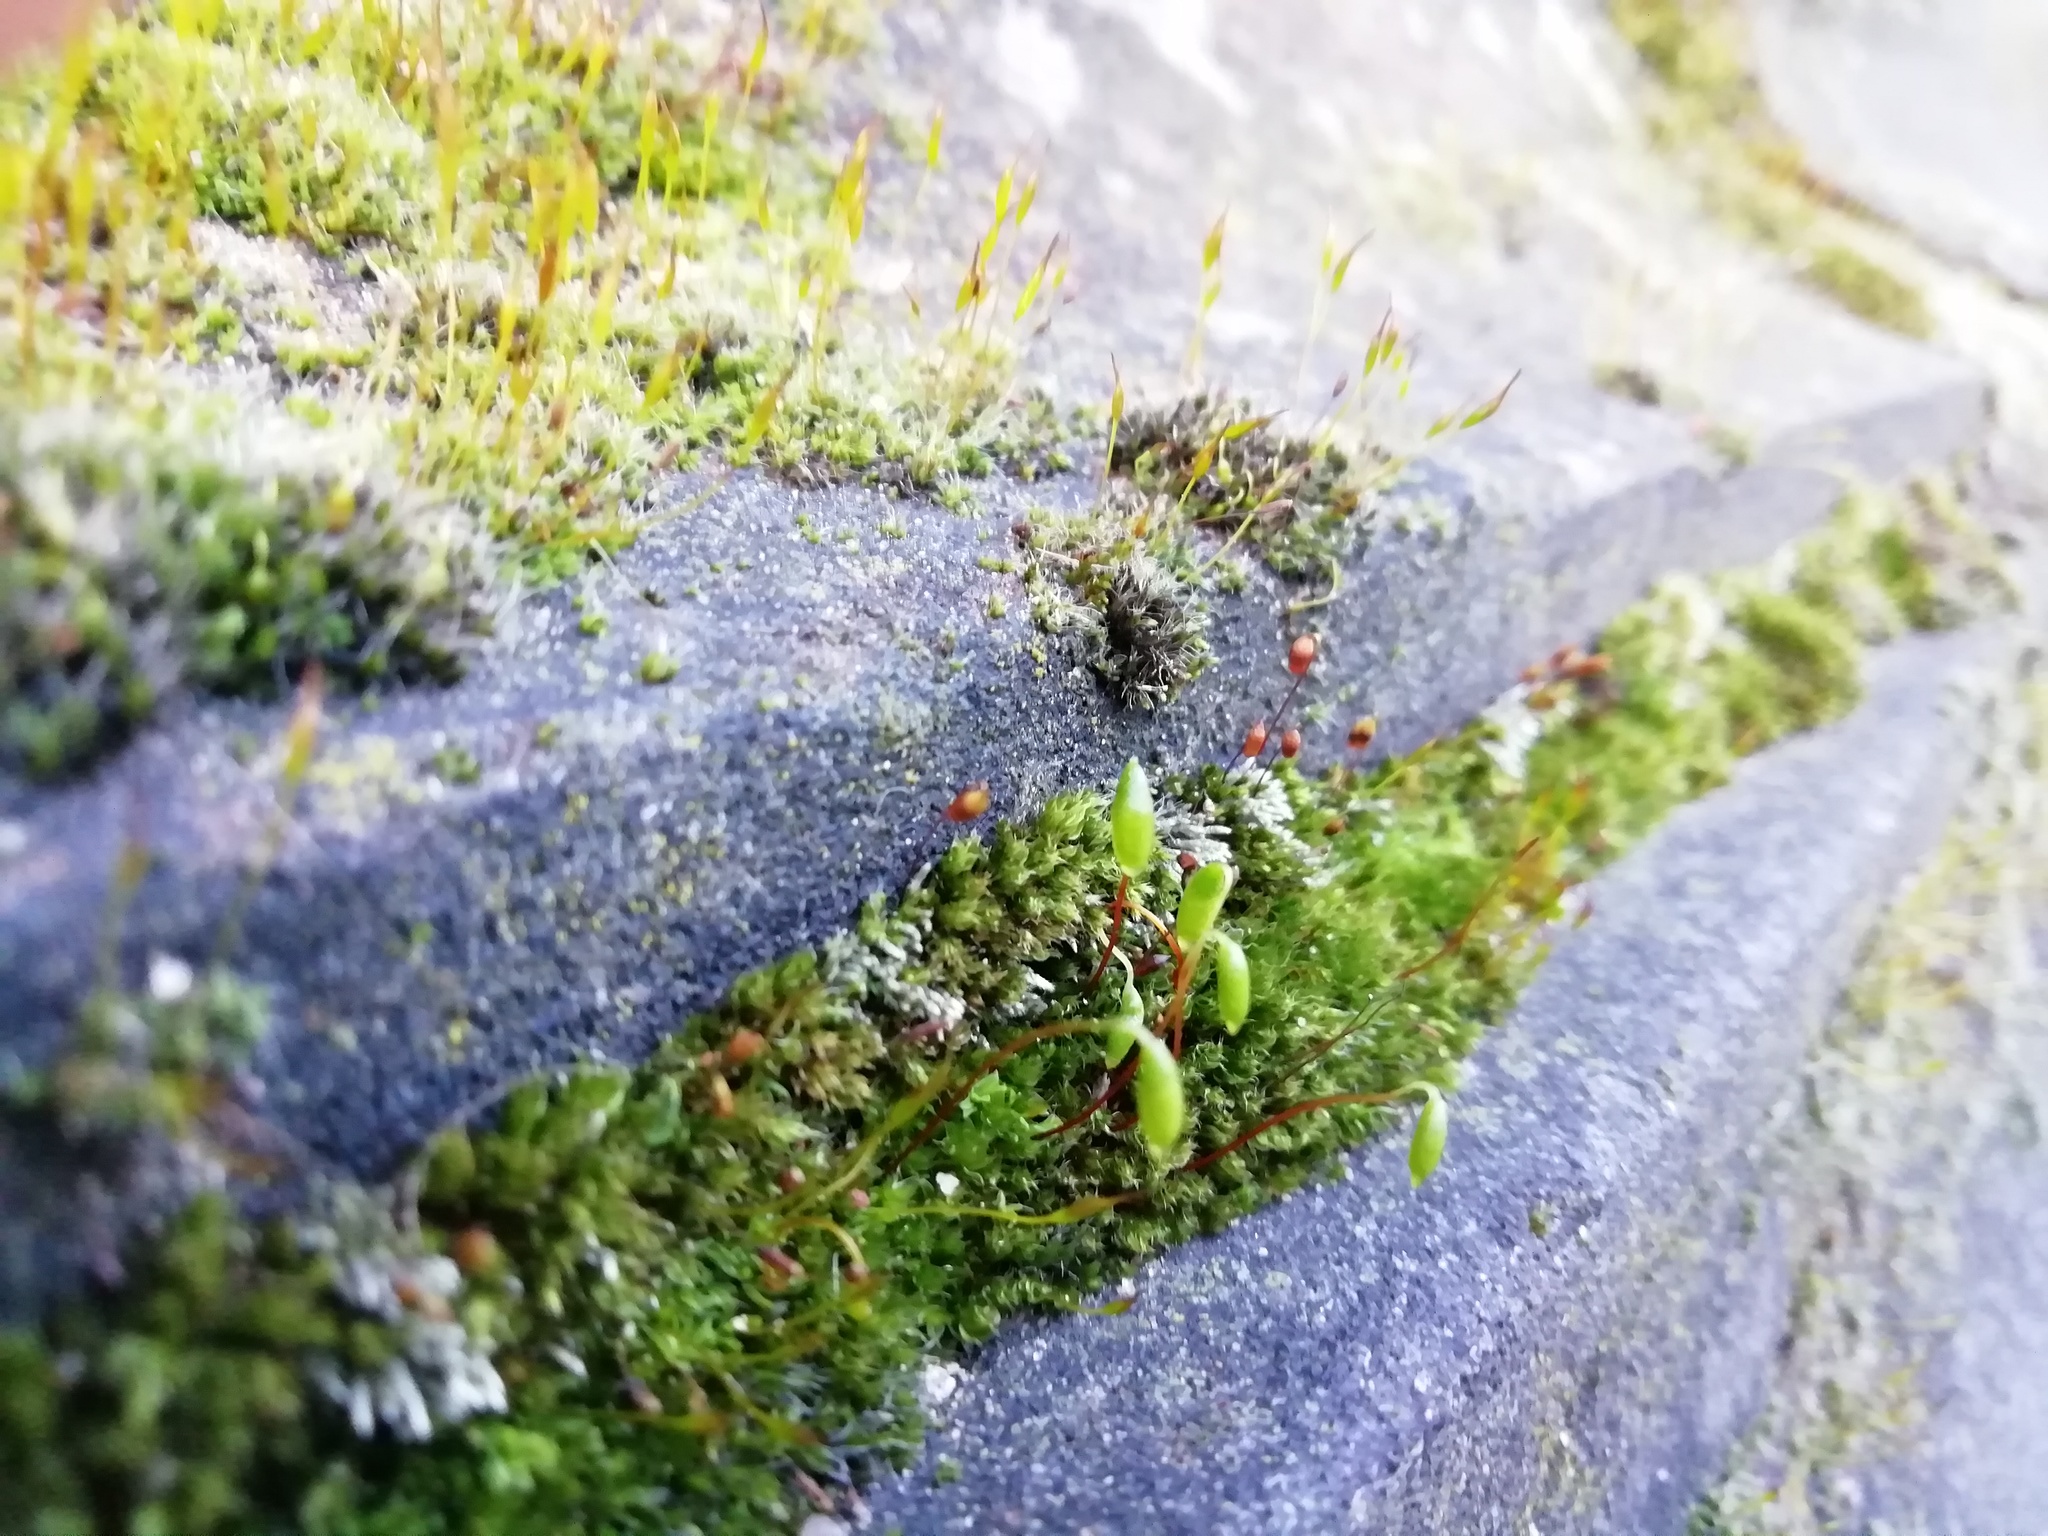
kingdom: Plantae
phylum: Bryophyta
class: Bryopsida
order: Bryales
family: Bryaceae
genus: Rosulabryum
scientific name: Rosulabryum capillare
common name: Capillary thread-moss
